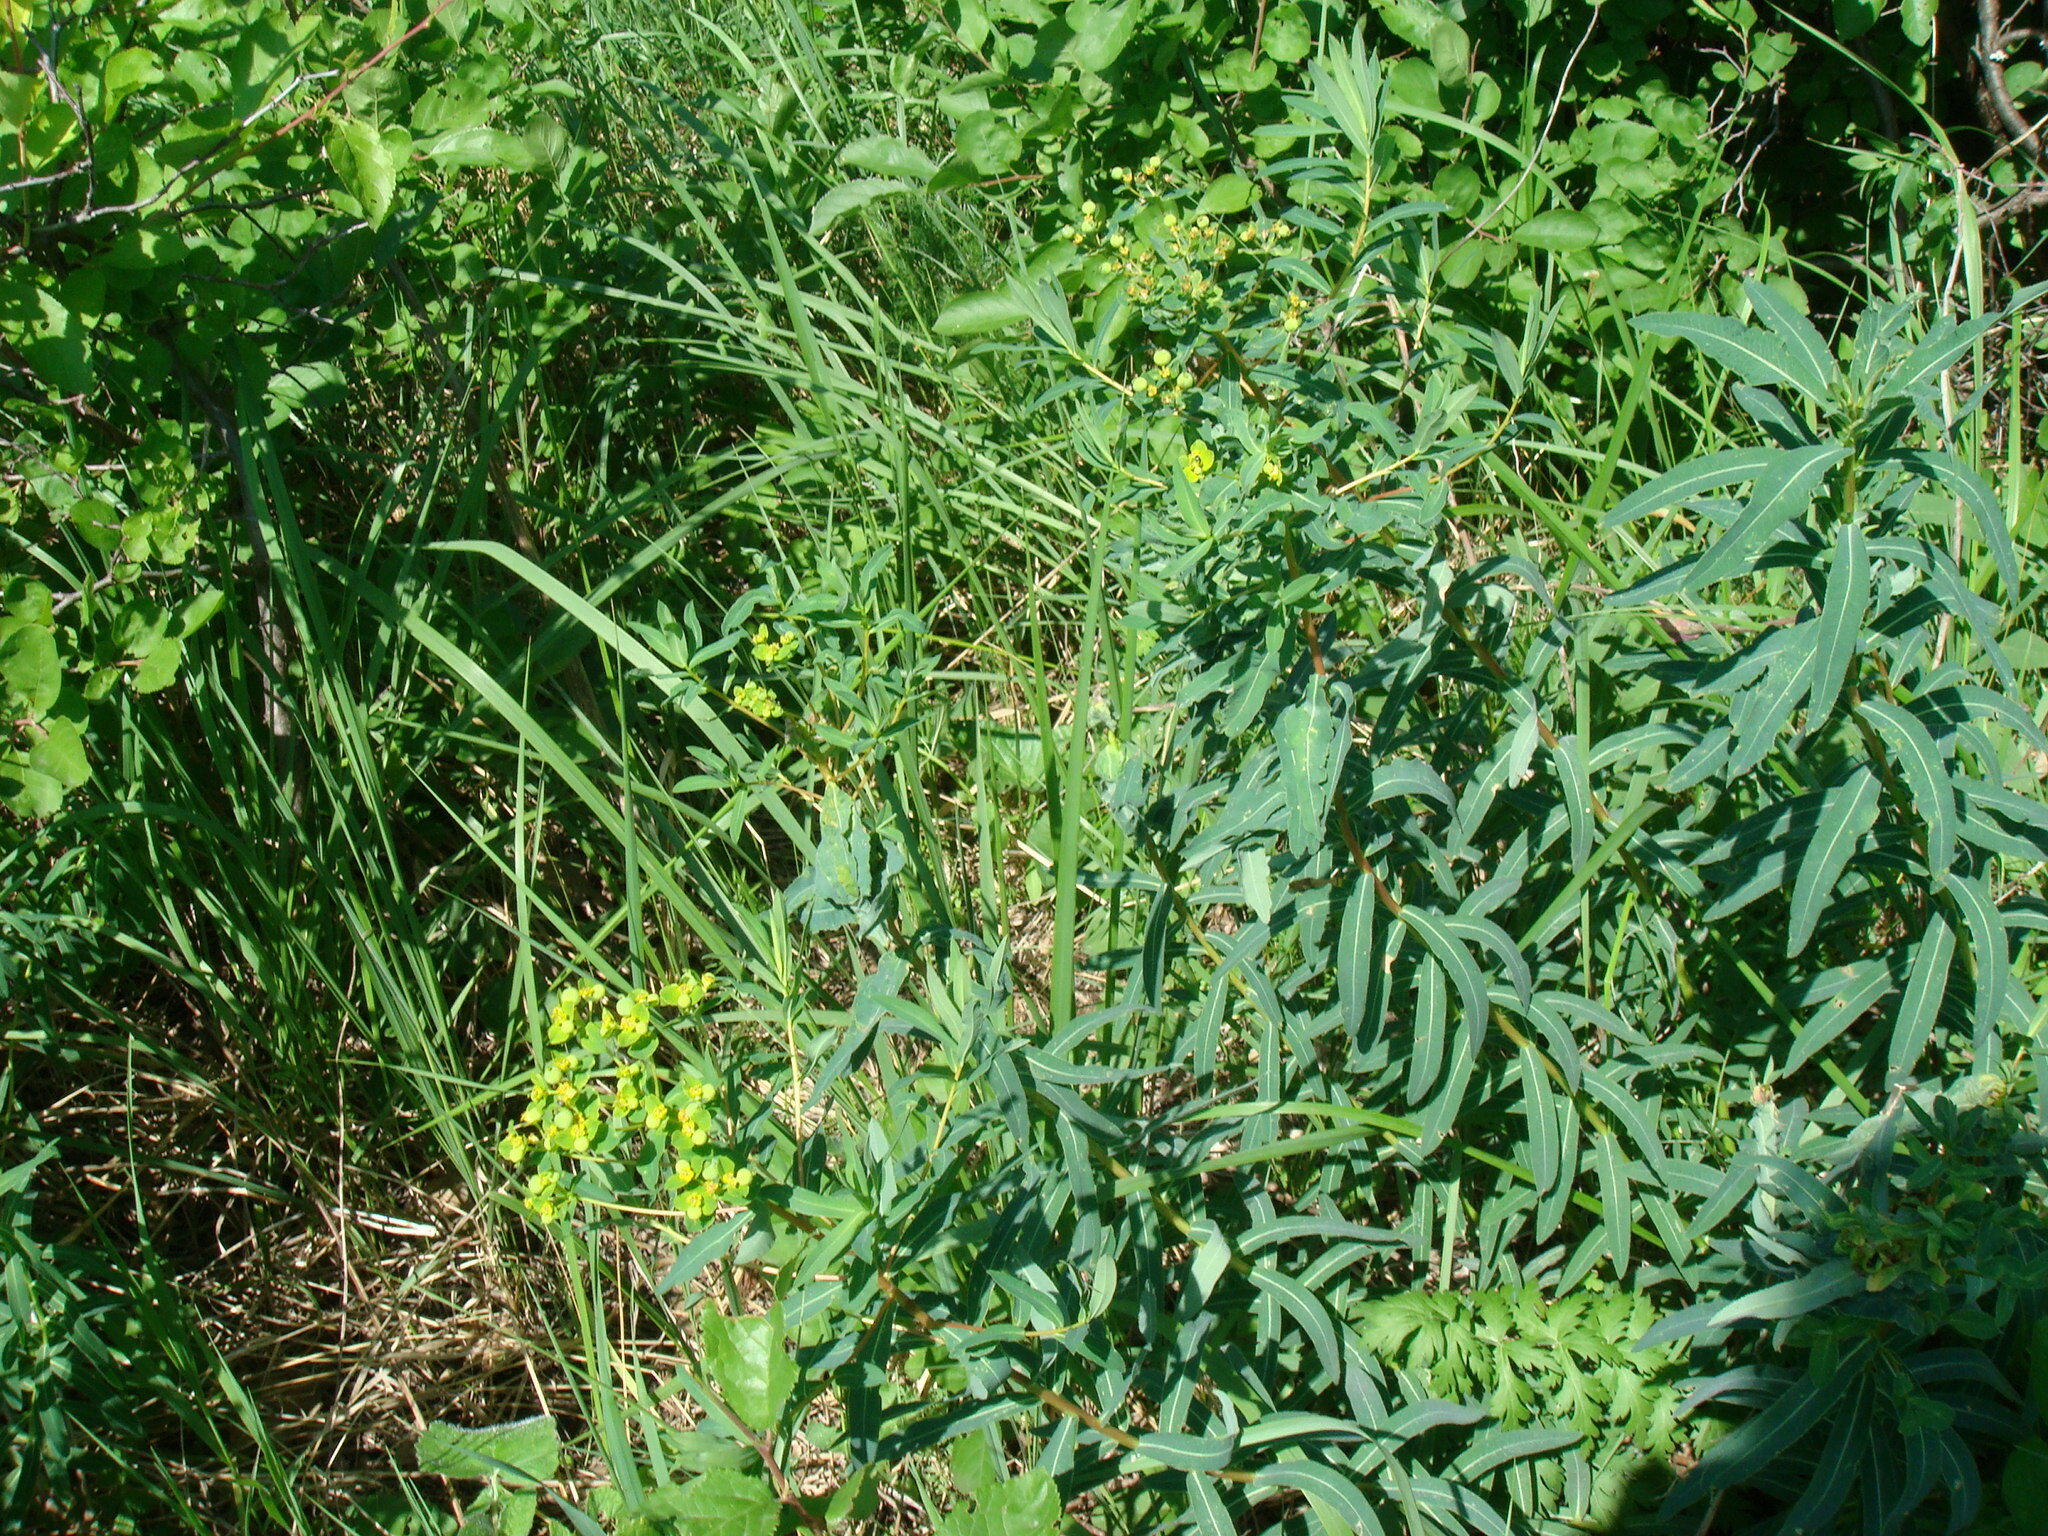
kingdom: Plantae
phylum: Tracheophyta
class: Magnoliopsida
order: Malpighiales
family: Euphorbiaceae
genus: Euphorbia
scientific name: Euphorbia semivillosa
